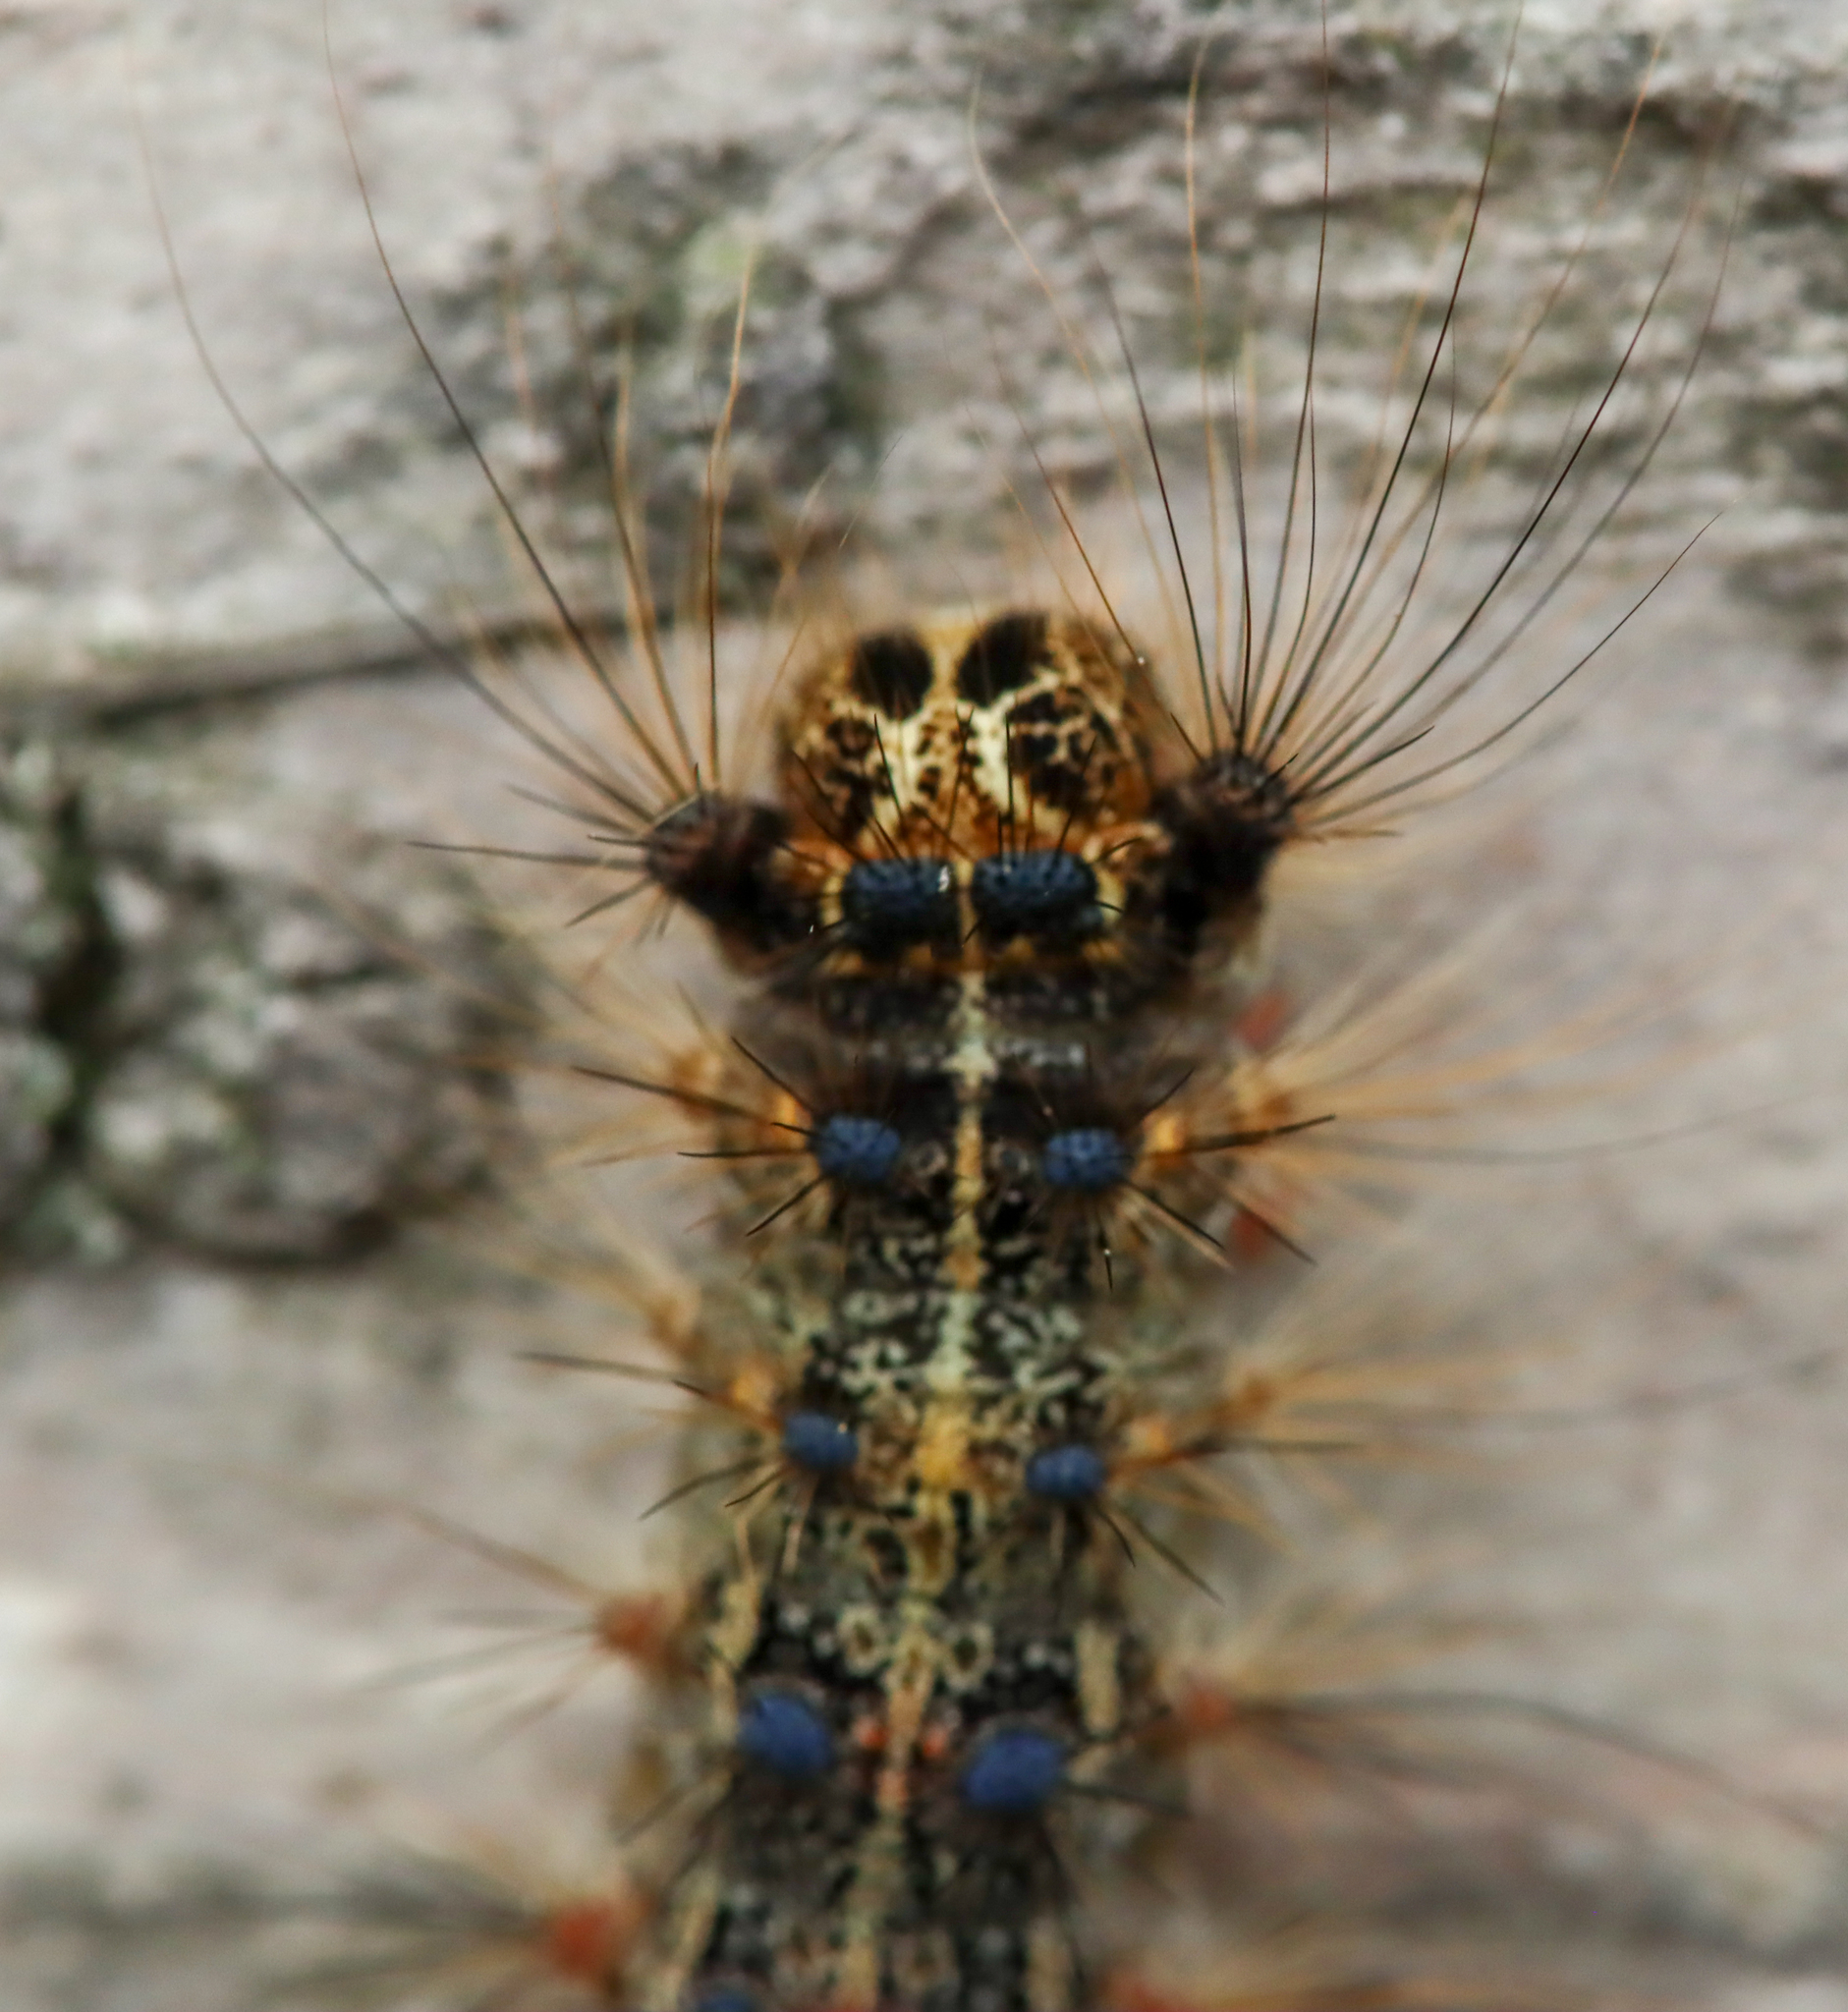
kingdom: Animalia
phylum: Arthropoda
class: Insecta
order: Lepidoptera
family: Erebidae
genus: Lymantria
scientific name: Lymantria dispar
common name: Gypsy moth
